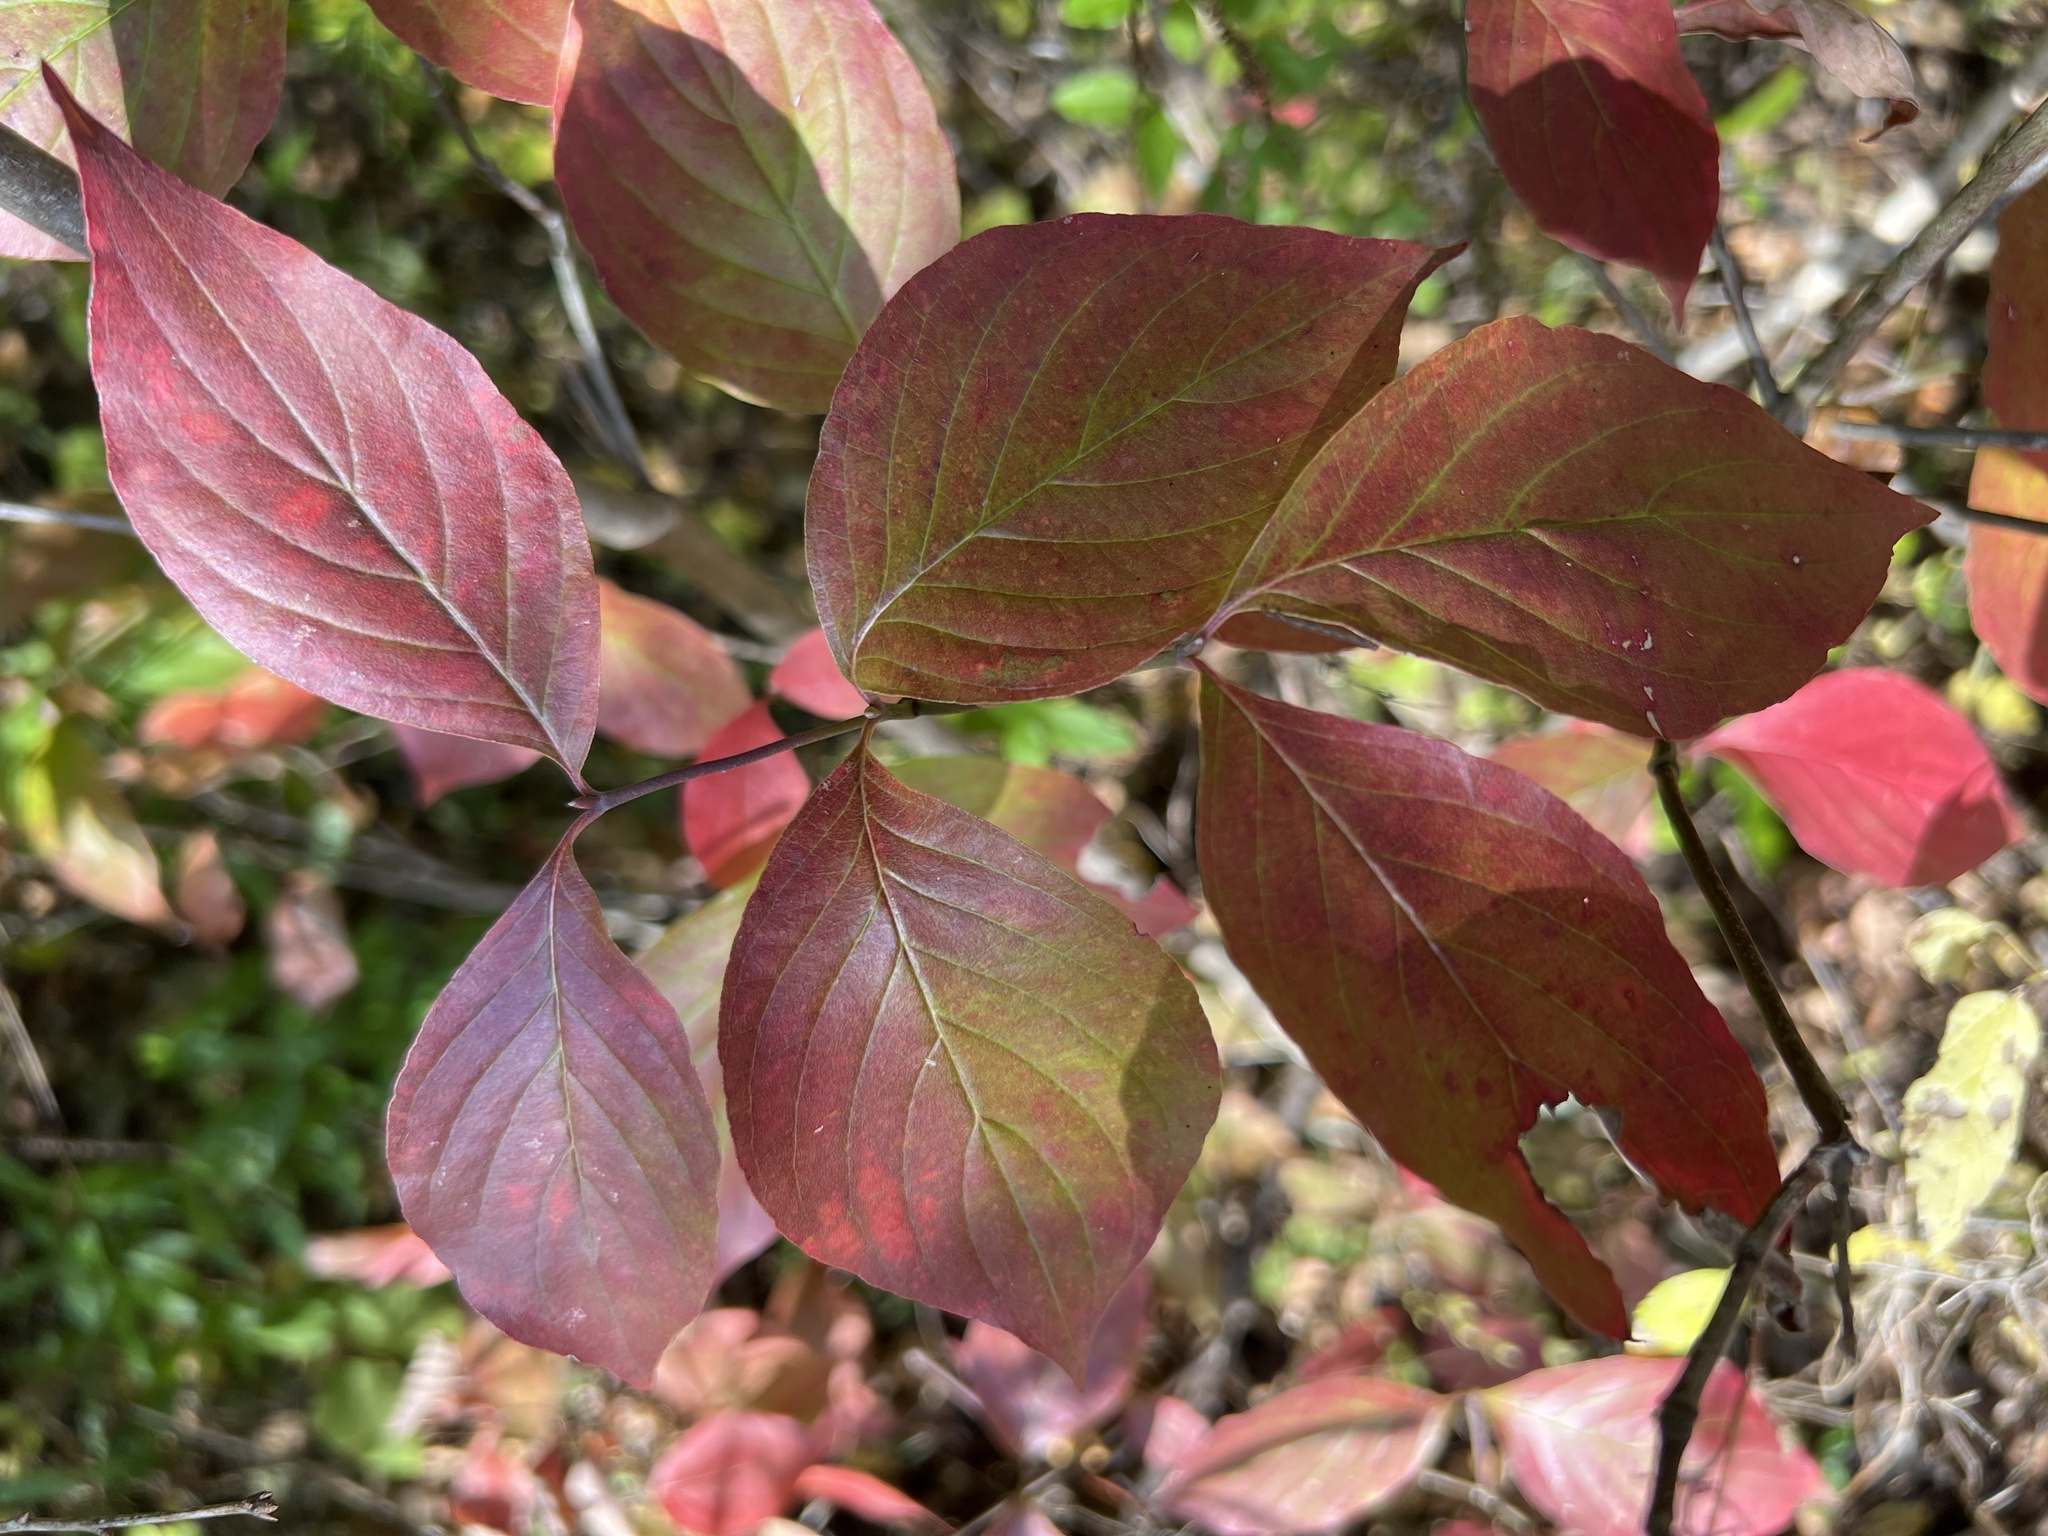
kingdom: Plantae
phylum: Tracheophyta
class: Magnoliopsida
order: Cornales
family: Cornaceae
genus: Cornus
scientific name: Cornus florida
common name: Flowering dogwood
